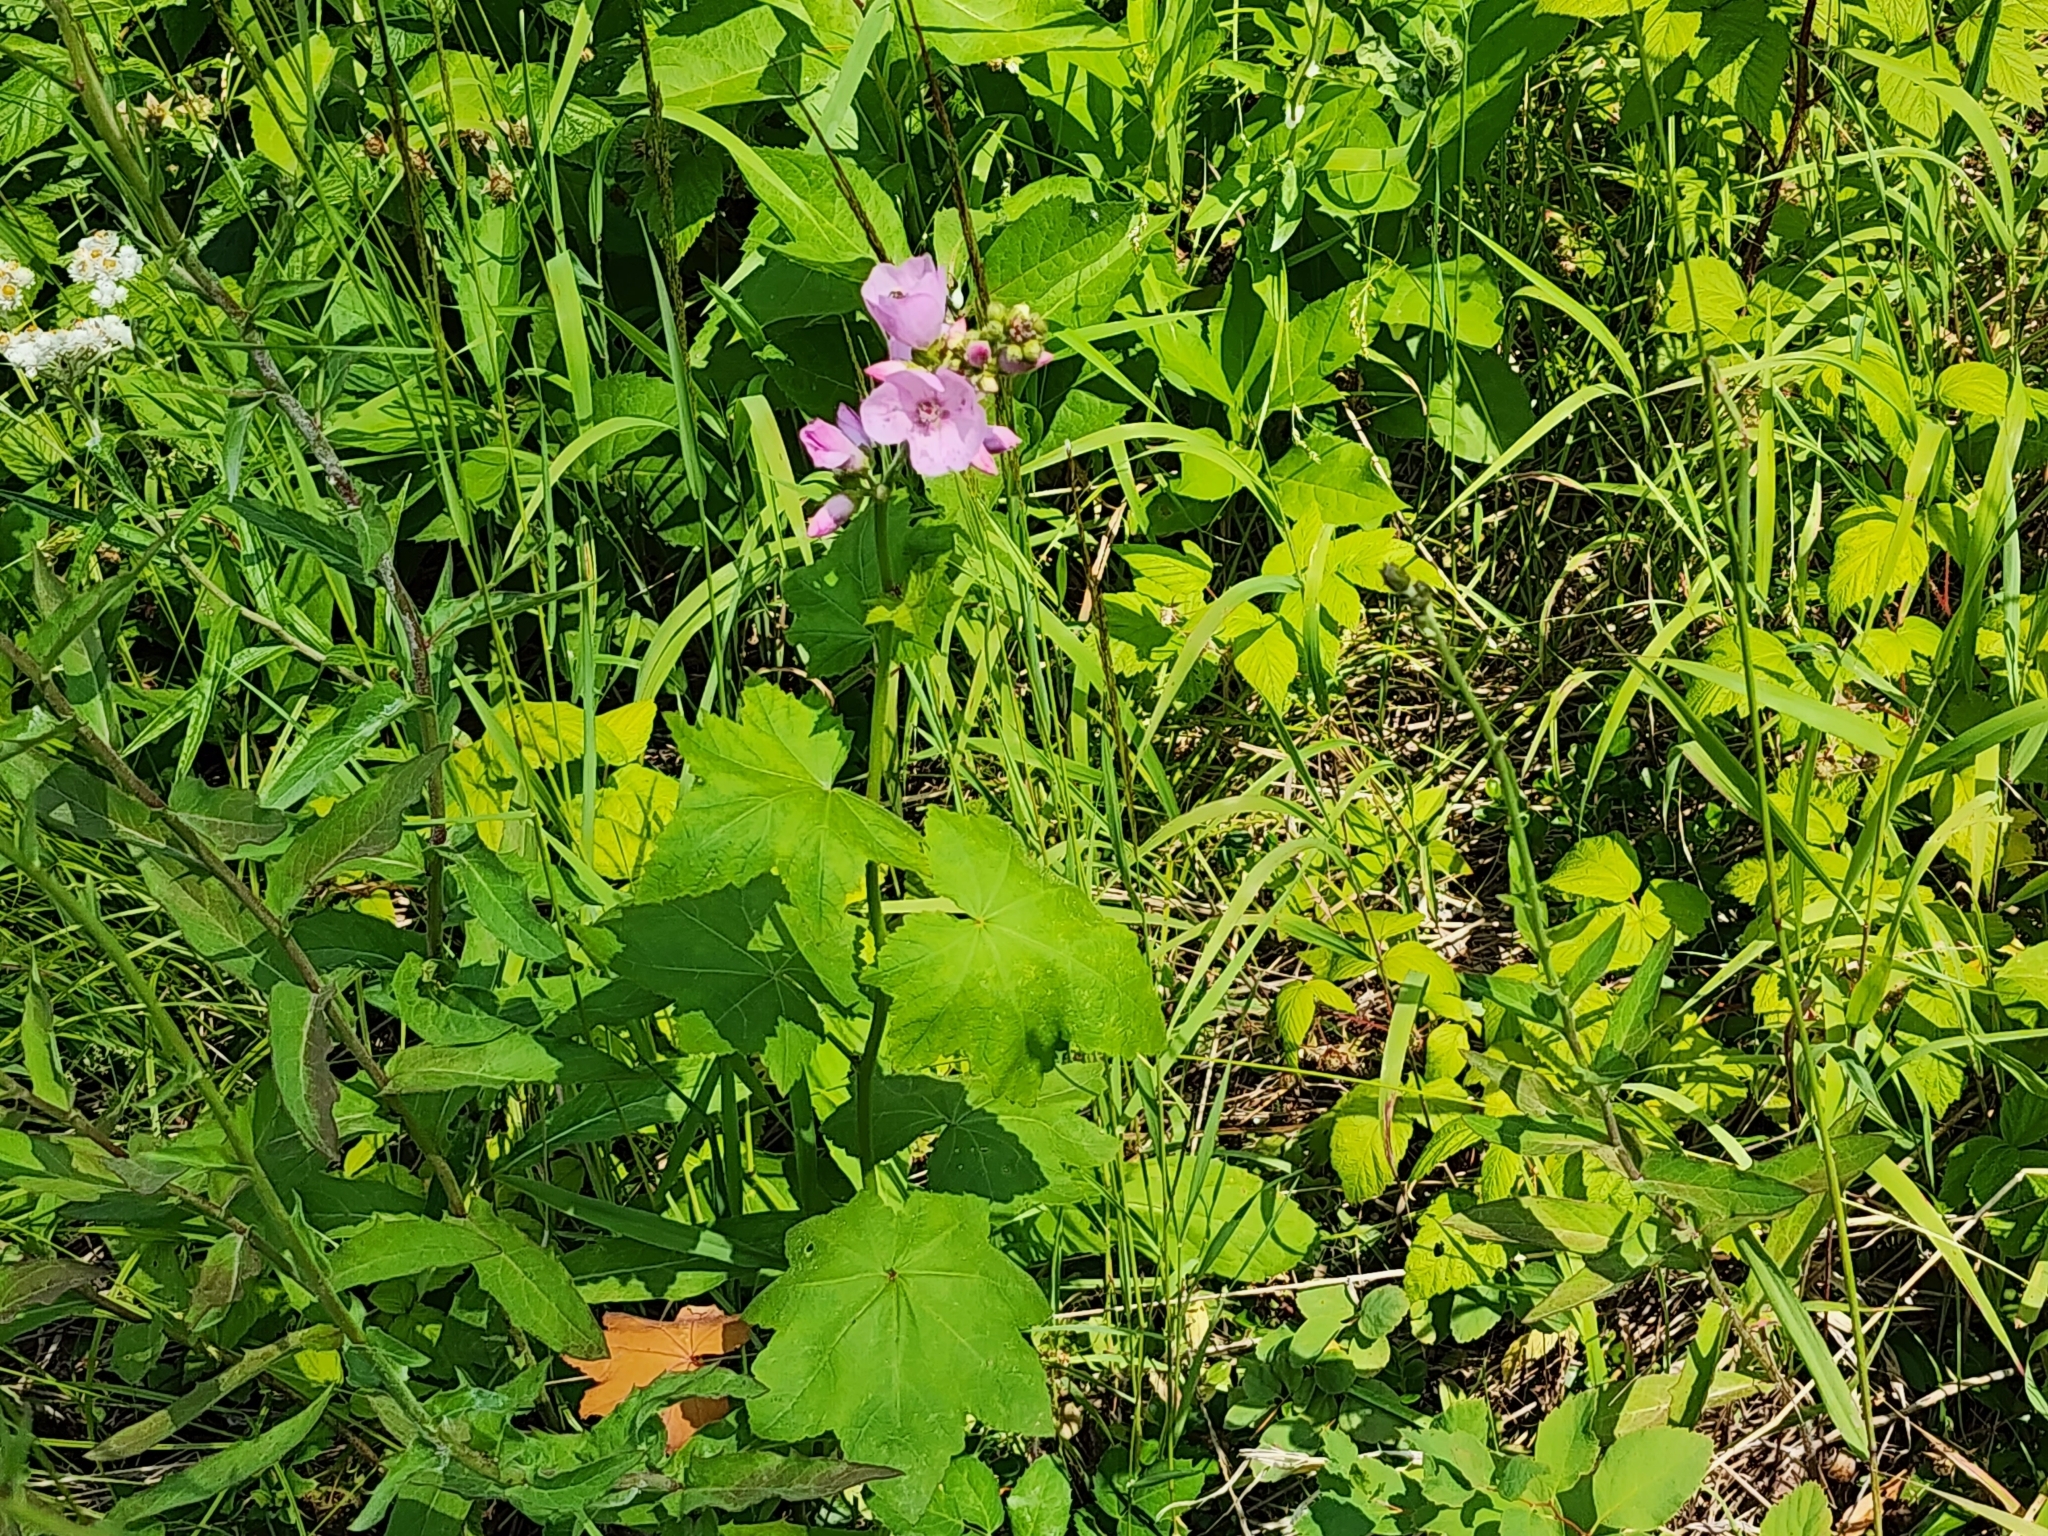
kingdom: Plantae
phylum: Tracheophyta
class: Magnoliopsida
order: Malvales
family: Malvaceae
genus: Iliamna
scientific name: Iliamna rivularis
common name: Wild hollyhock
